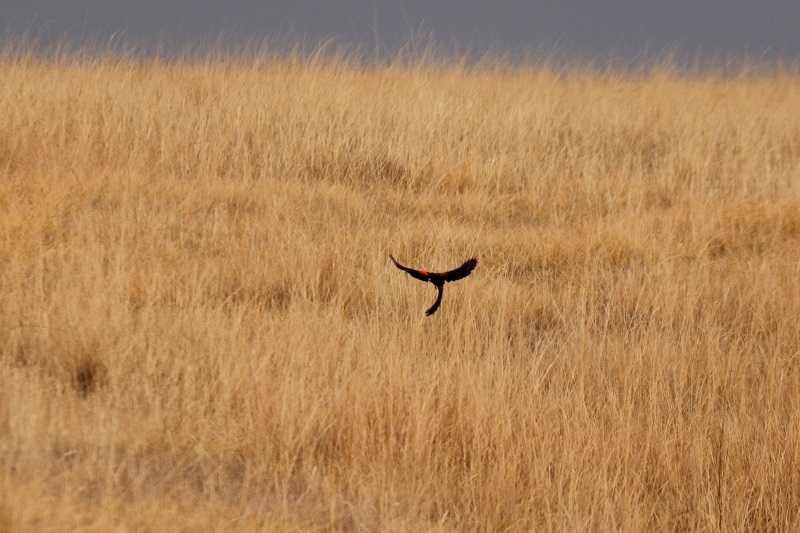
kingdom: Animalia
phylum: Chordata
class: Aves
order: Passeriformes
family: Ploceidae
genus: Euplectes
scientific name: Euplectes progne
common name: Long-tailed widowbird
